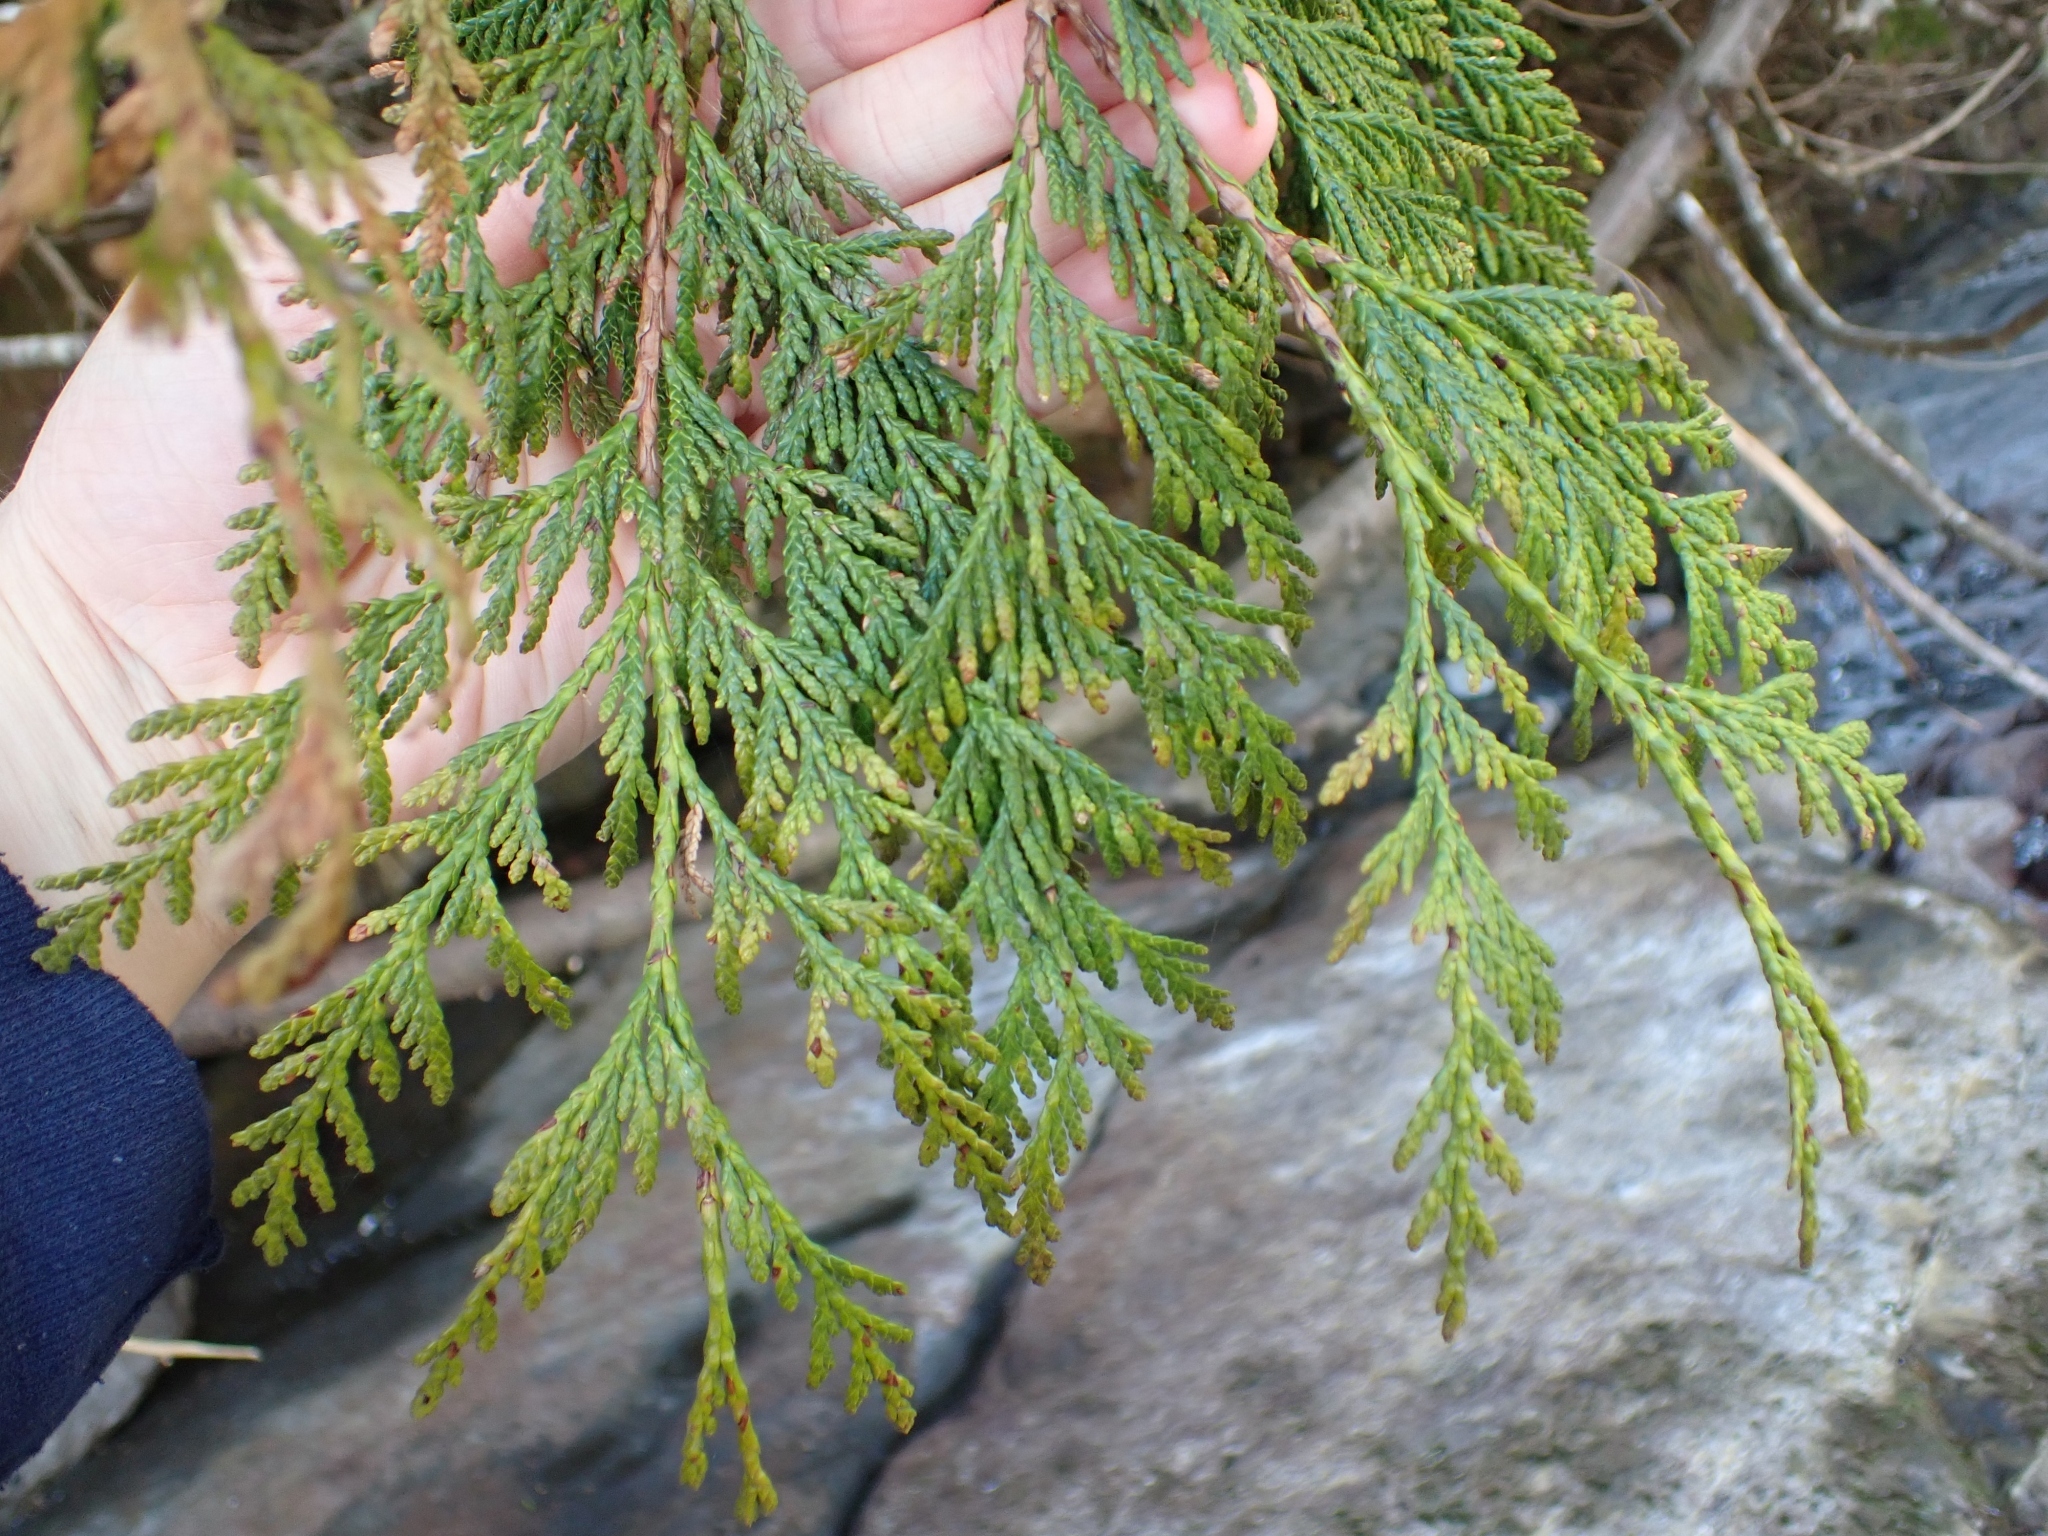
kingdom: Plantae
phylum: Tracheophyta
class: Pinopsida
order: Pinales
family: Cupressaceae
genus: Thuja
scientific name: Thuja plicata
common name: Western red-cedar
